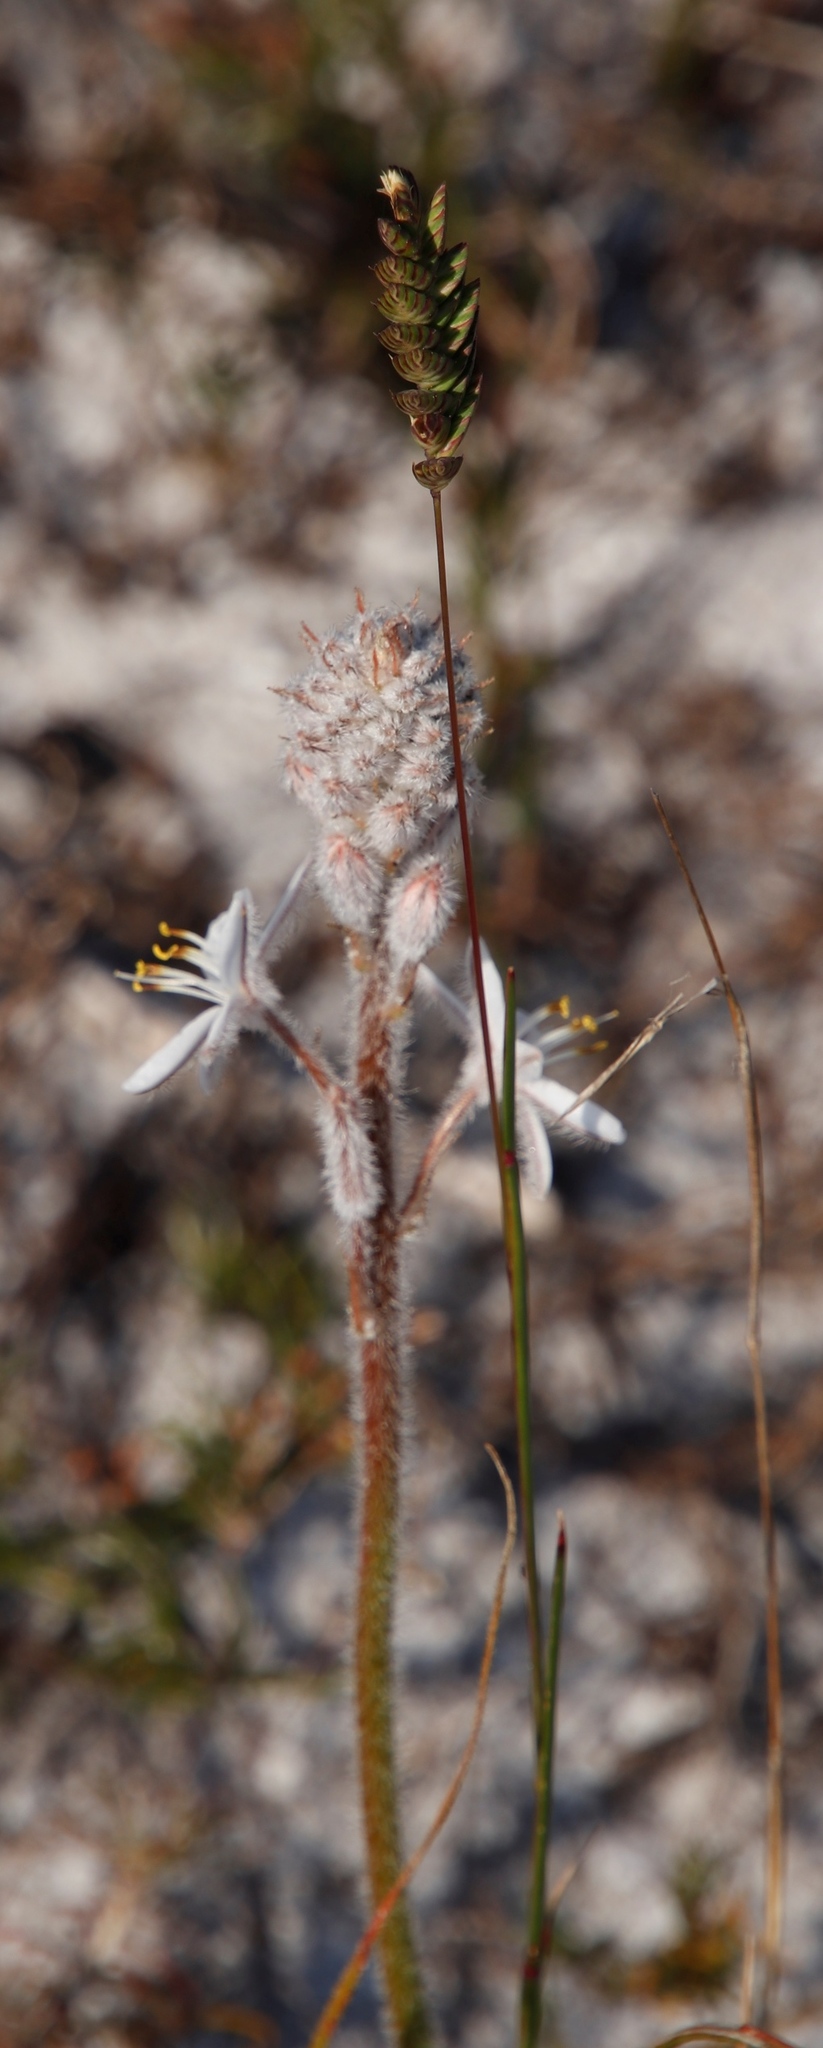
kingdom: Plantae
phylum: Tracheophyta
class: Liliopsida
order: Poales
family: Poaceae
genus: Tribolium
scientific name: Tribolium uniolae
